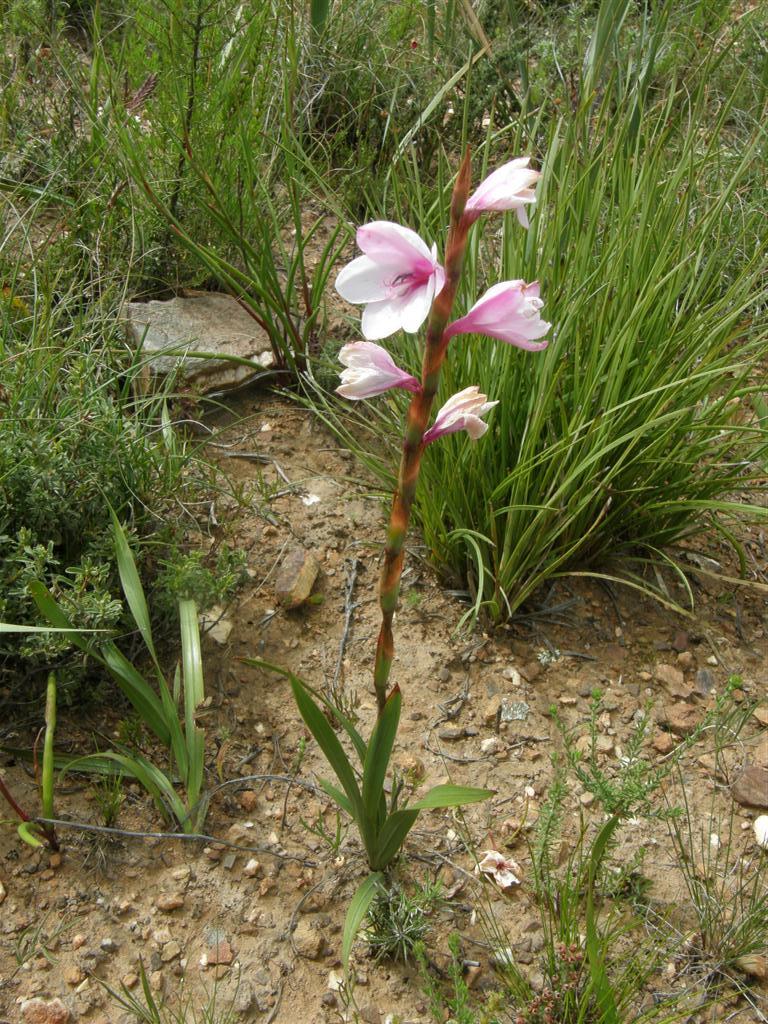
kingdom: Plantae
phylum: Tracheophyta
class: Liliopsida
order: Asparagales
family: Iridaceae
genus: Watsonia
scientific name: Watsonia laccata
